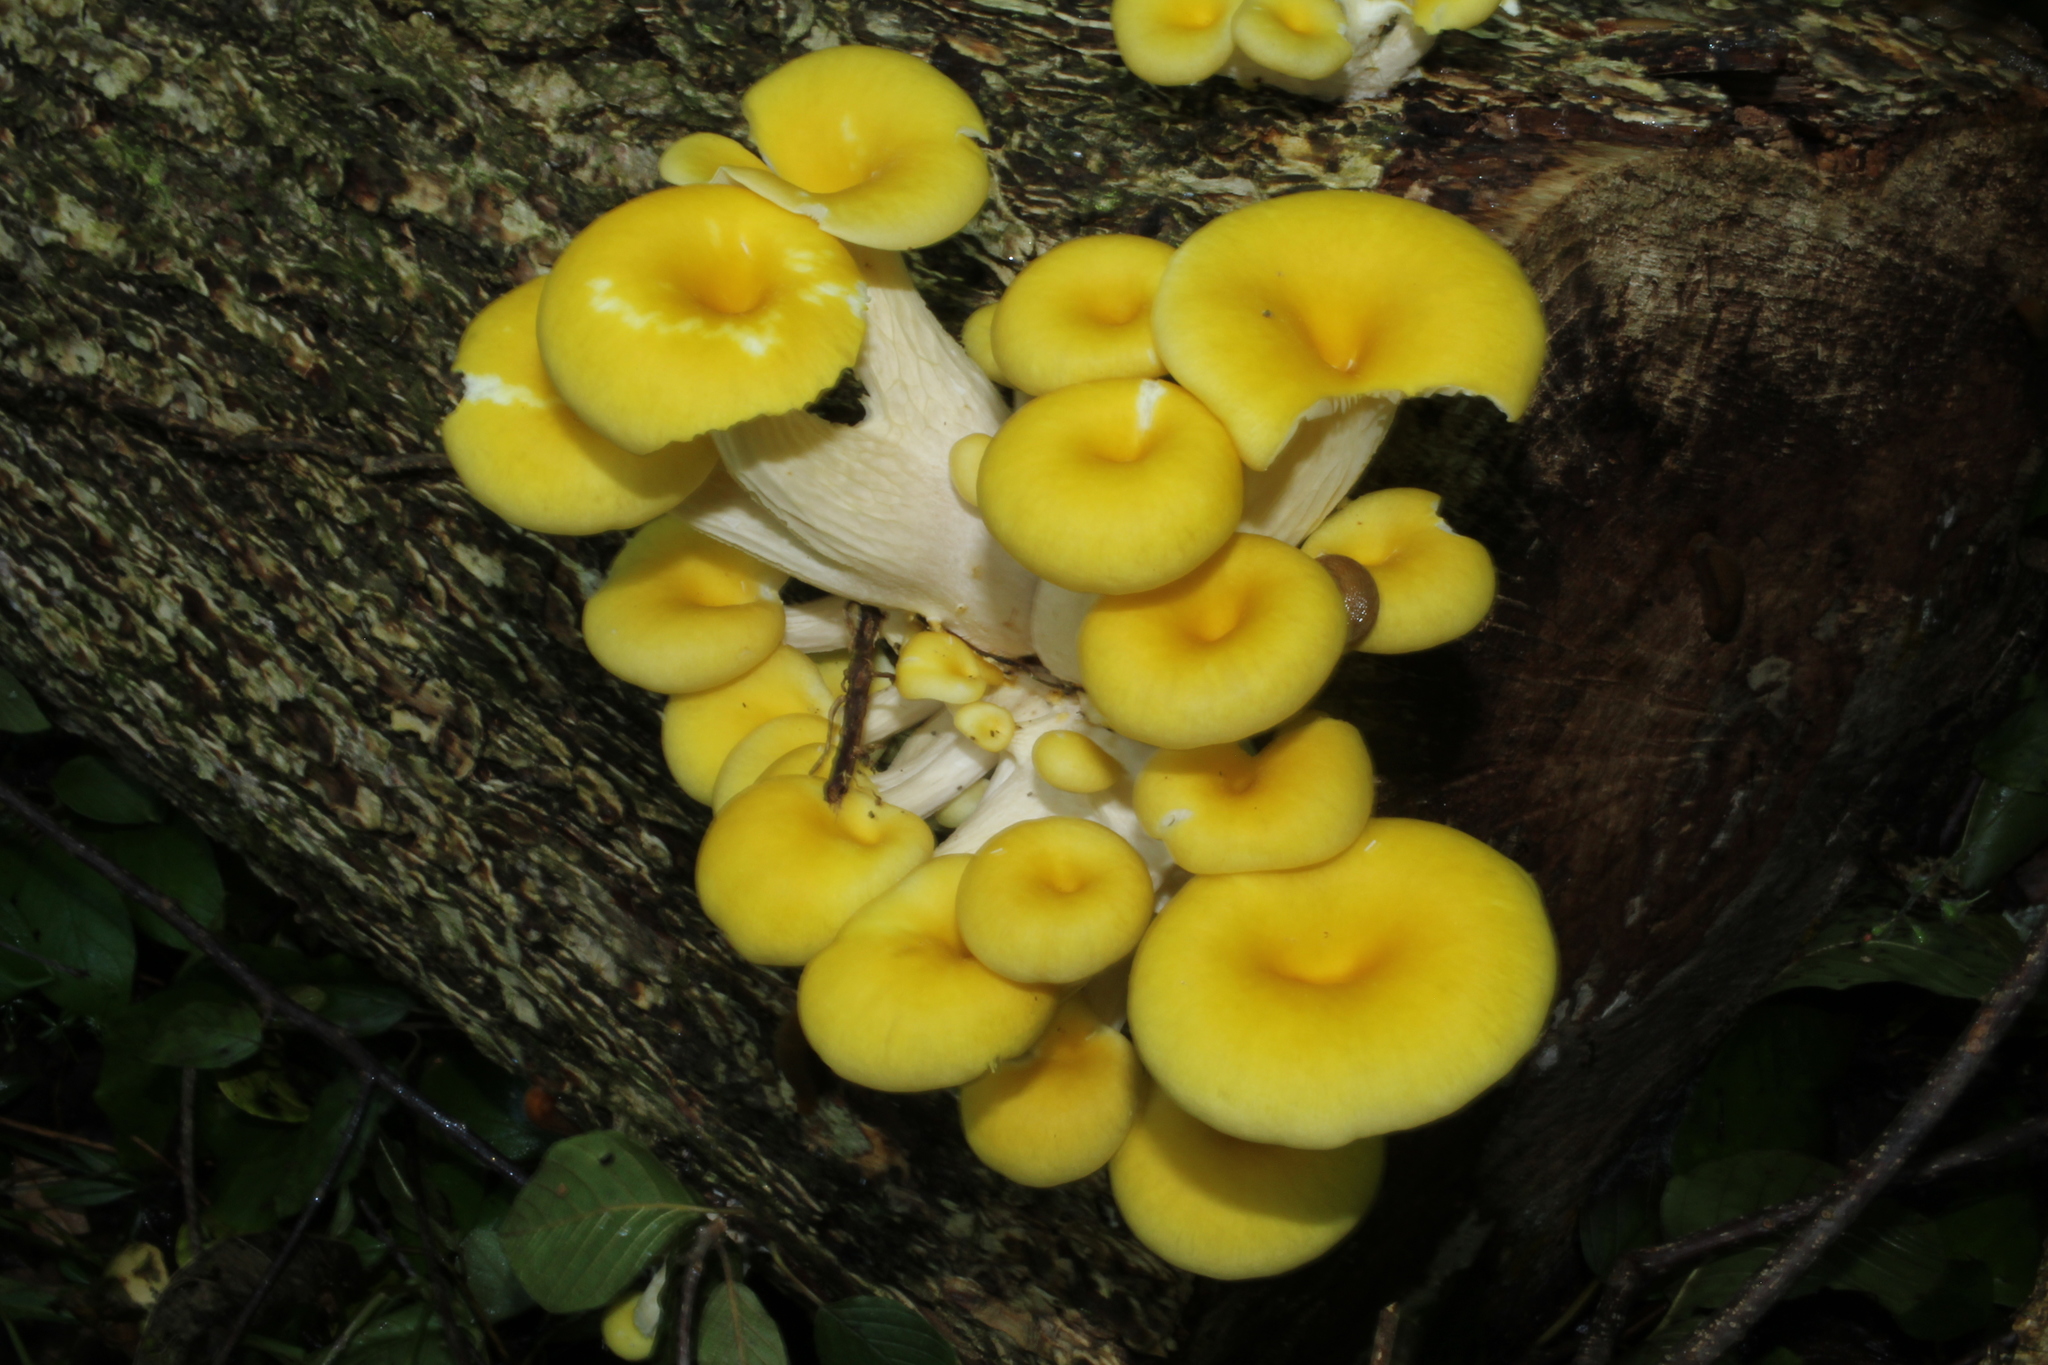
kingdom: Fungi
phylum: Basidiomycota
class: Agaricomycetes
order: Agaricales
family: Pleurotaceae
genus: Pleurotus
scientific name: Pleurotus citrinopileatus
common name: Golden oyster mushroom
